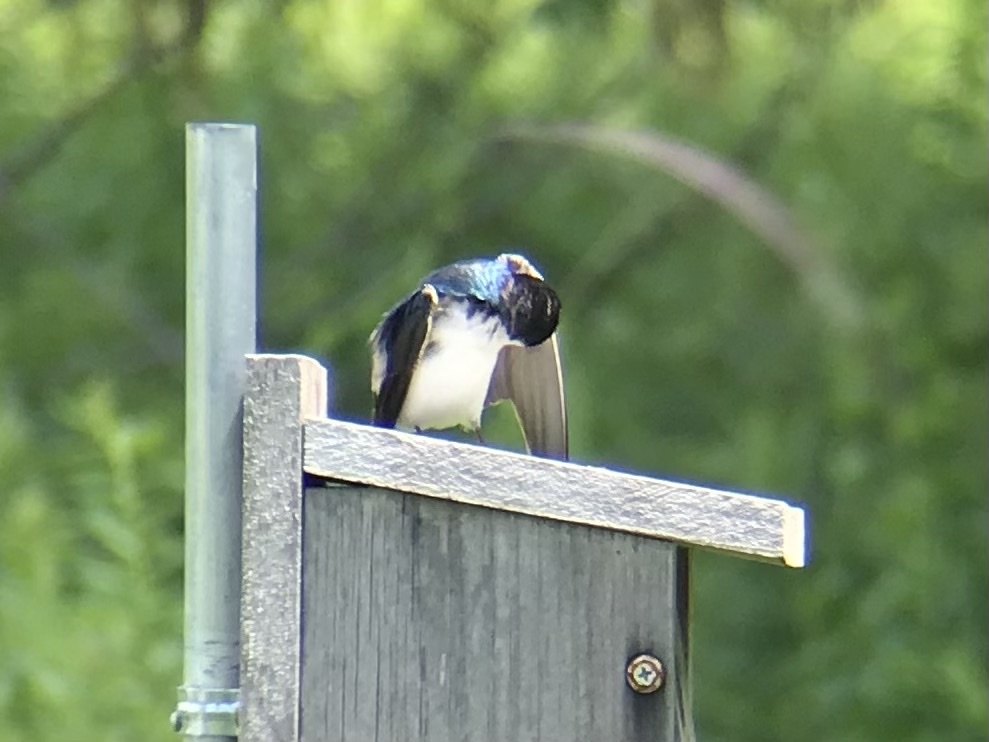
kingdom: Animalia
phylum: Chordata
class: Aves
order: Passeriformes
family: Hirundinidae
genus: Tachycineta
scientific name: Tachycineta bicolor
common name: Tree swallow
